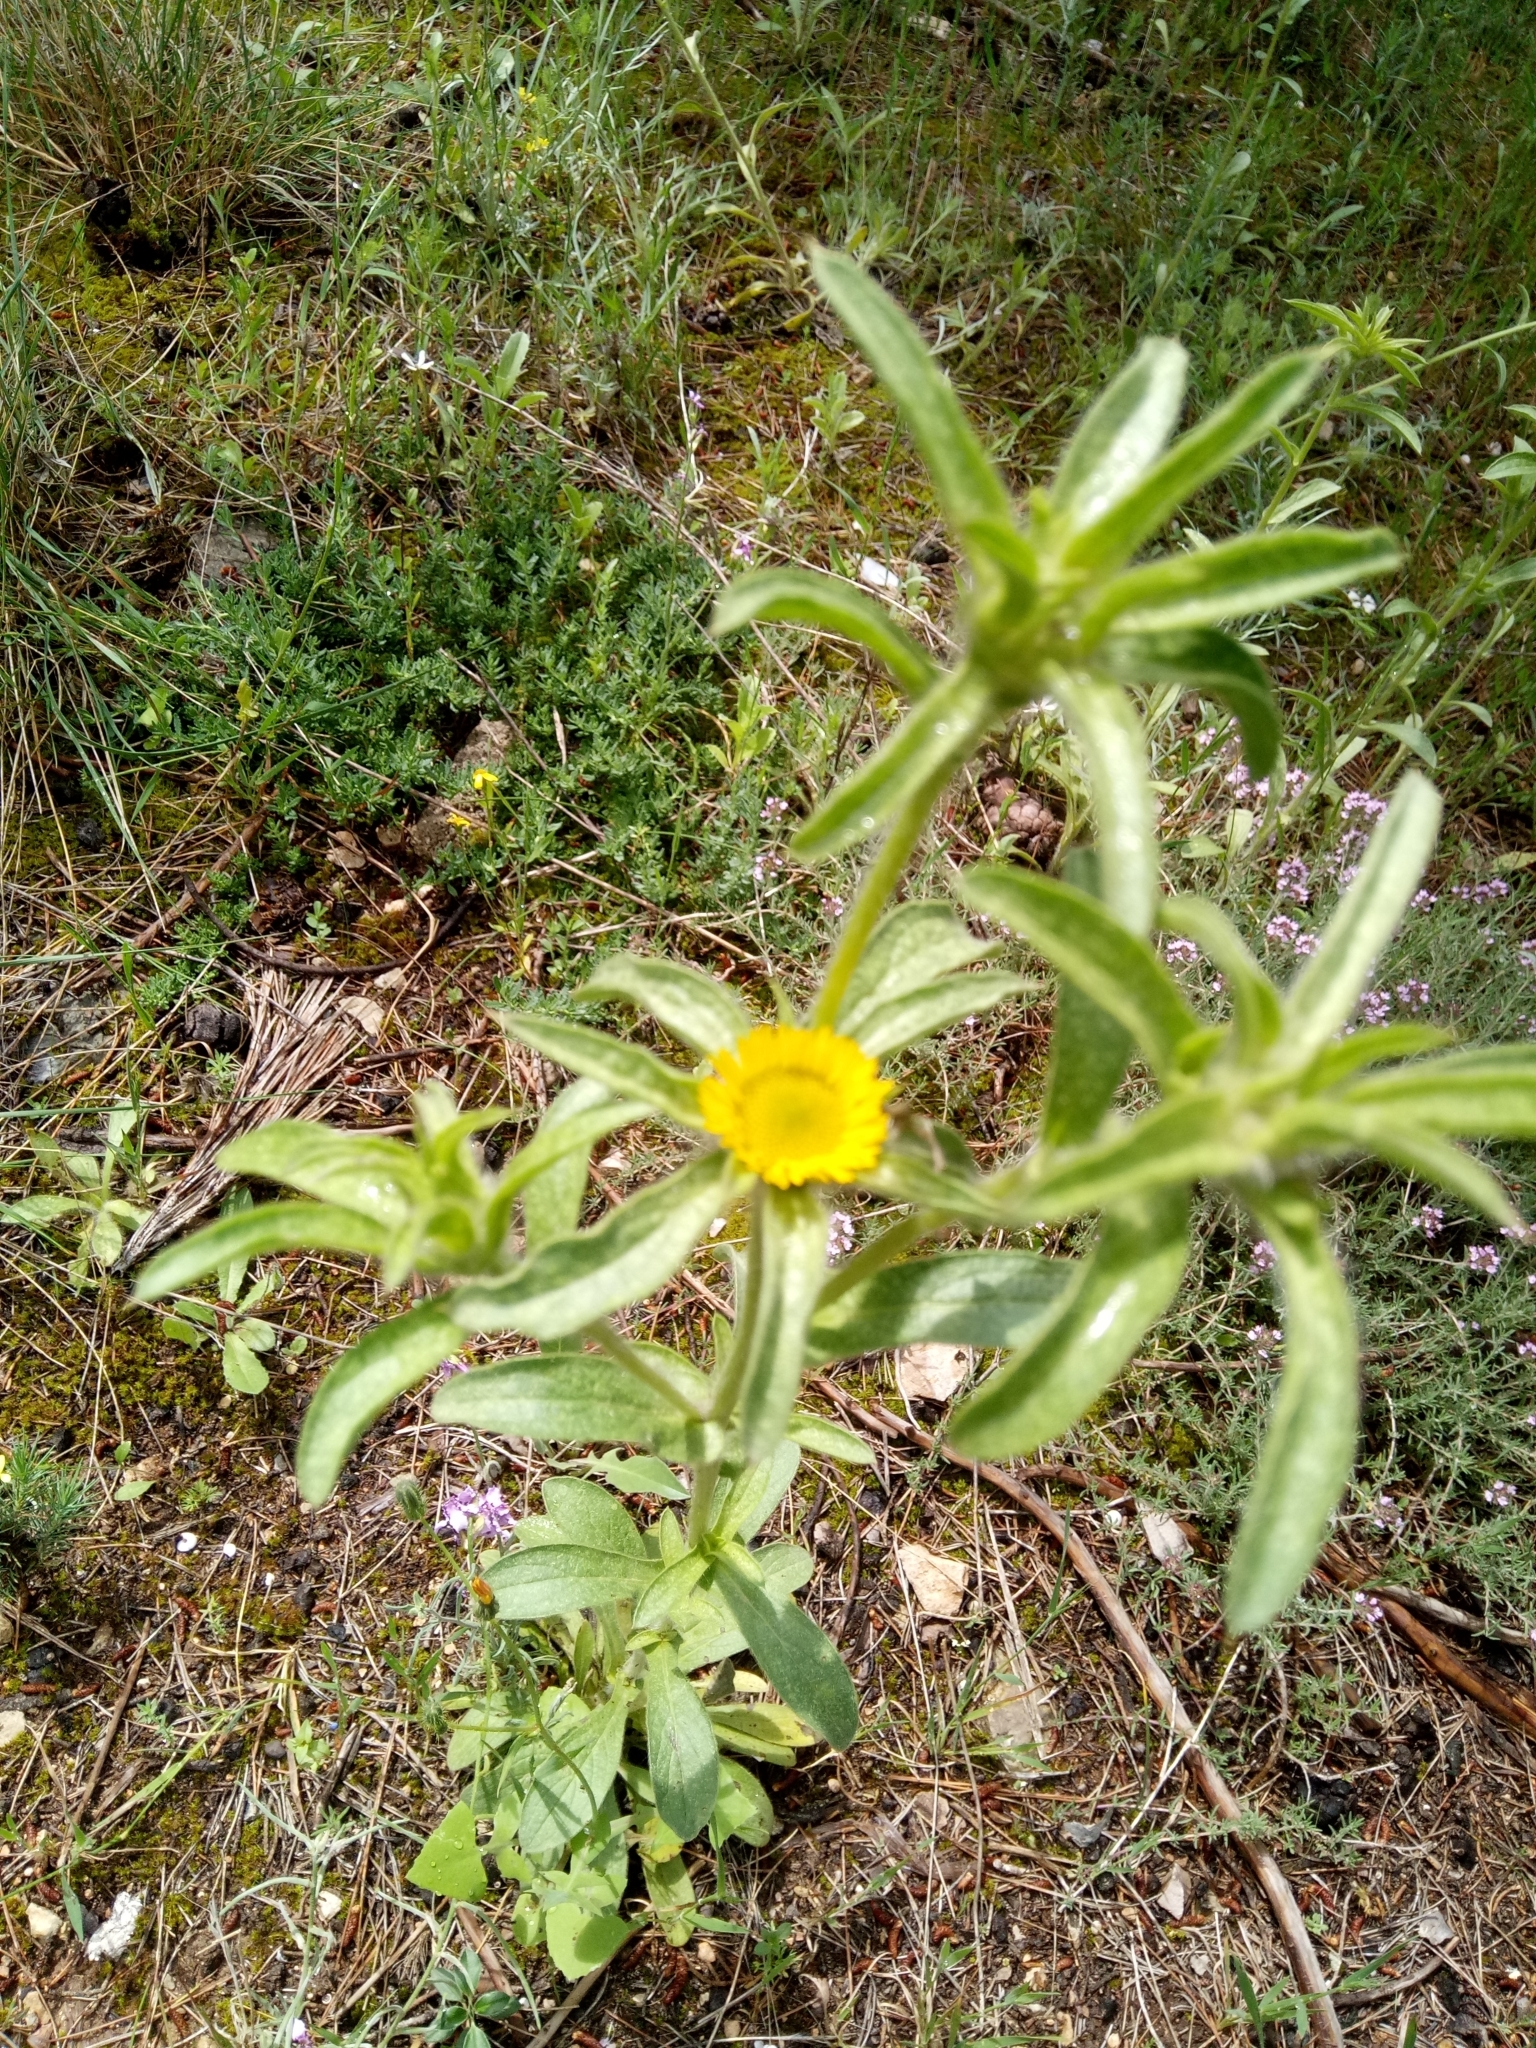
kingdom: Plantae
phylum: Tracheophyta
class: Magnoliopsida
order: Asterales
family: Asteraceae
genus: Pallenis
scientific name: Pallenis spinosa
